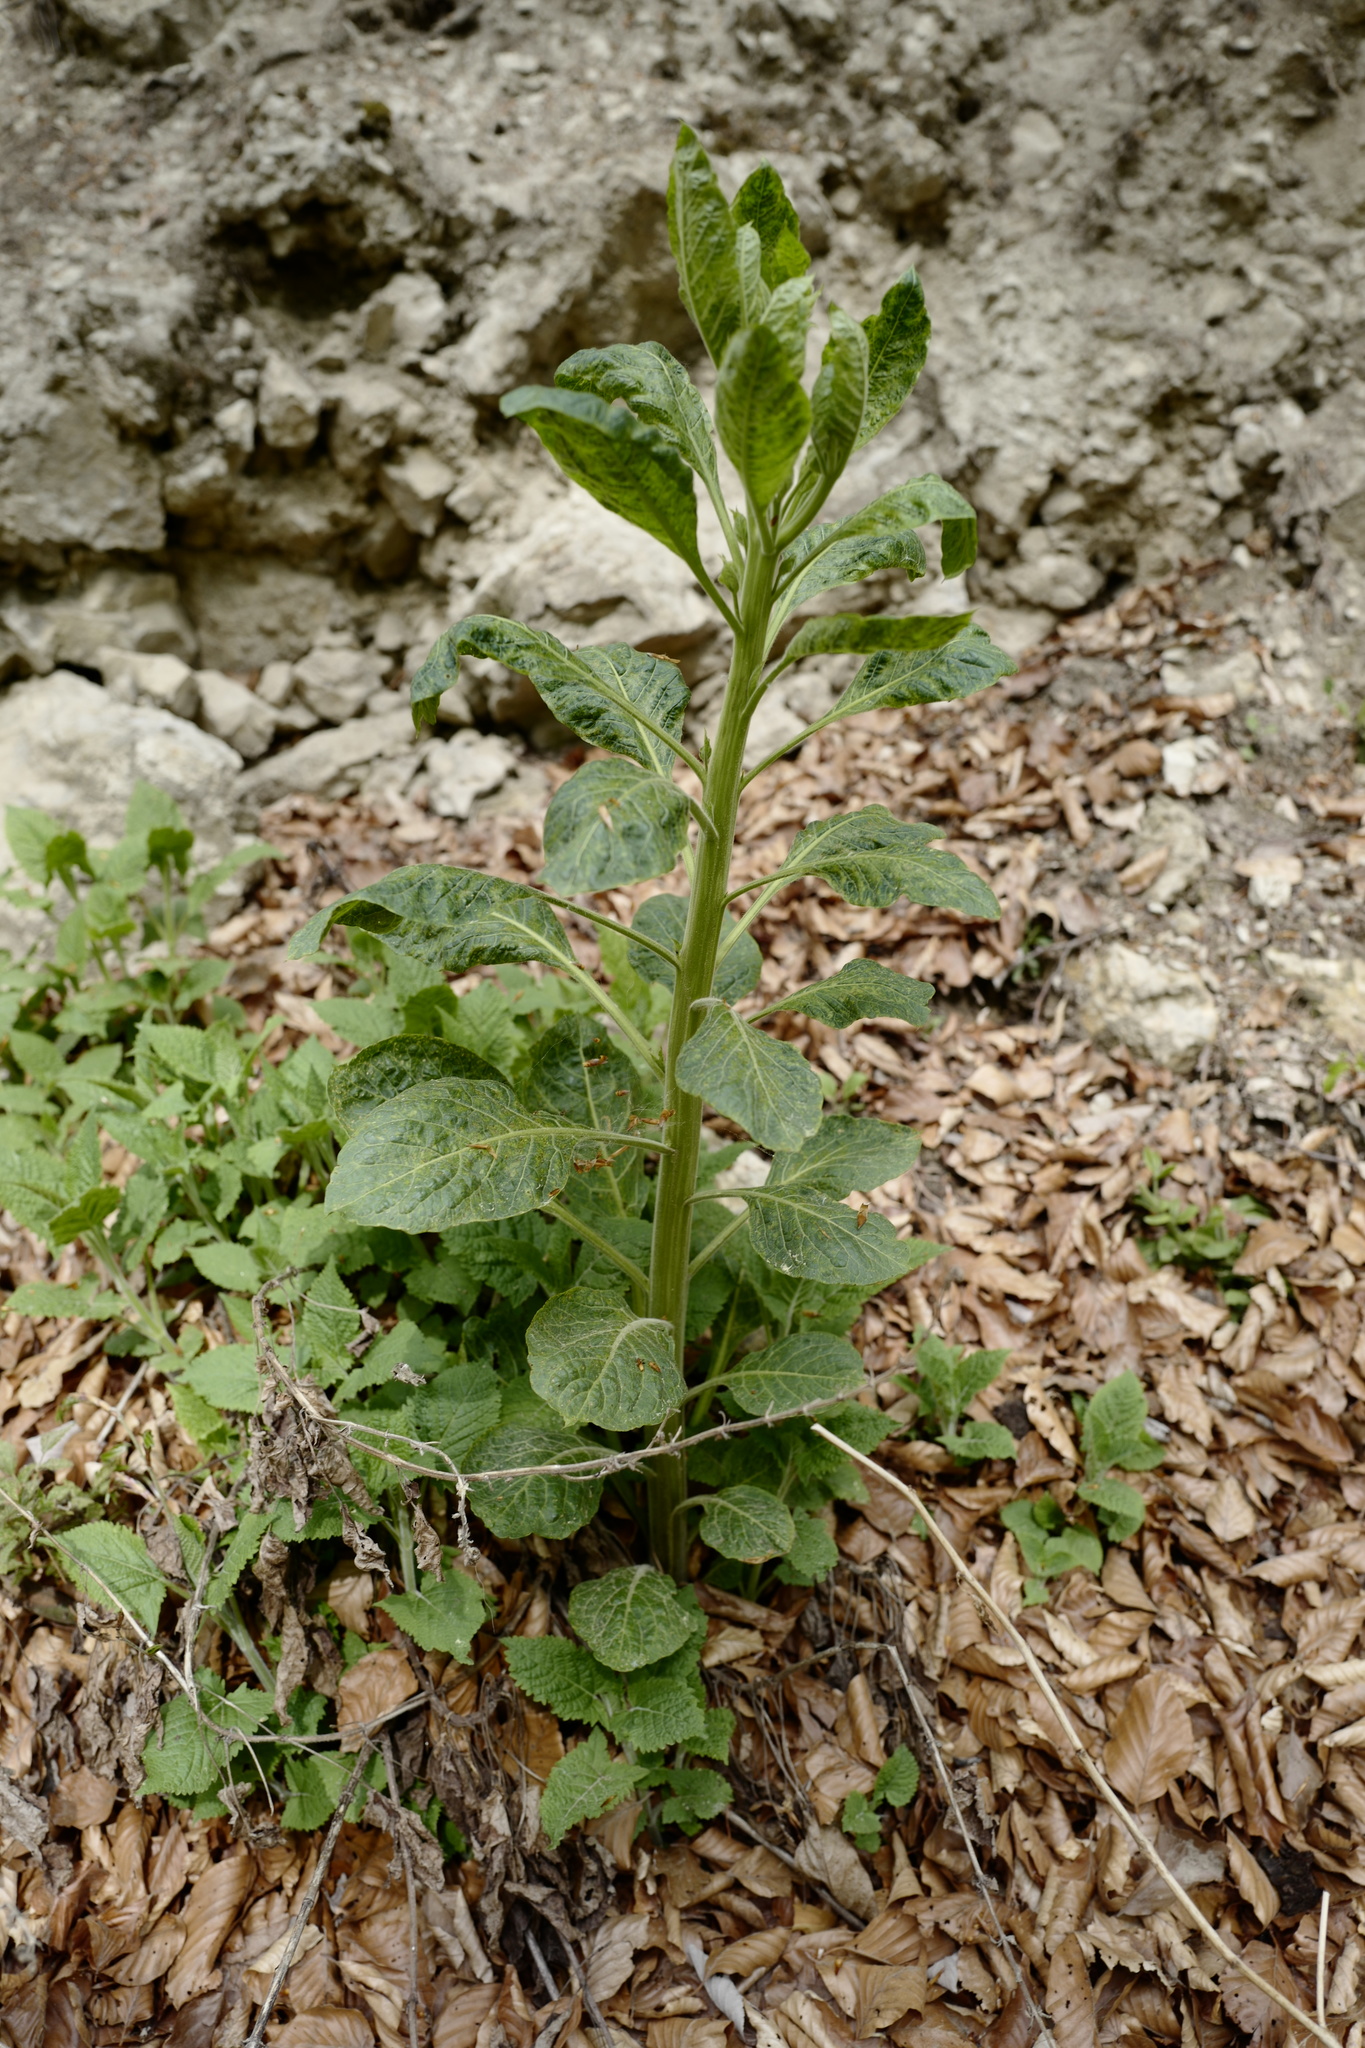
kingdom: Plantae
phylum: Tracheophyta
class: Magnoliopsida
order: Solanales
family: Solanaceae
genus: Atropa
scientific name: Atropa belladonna
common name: Deadly nightshade
